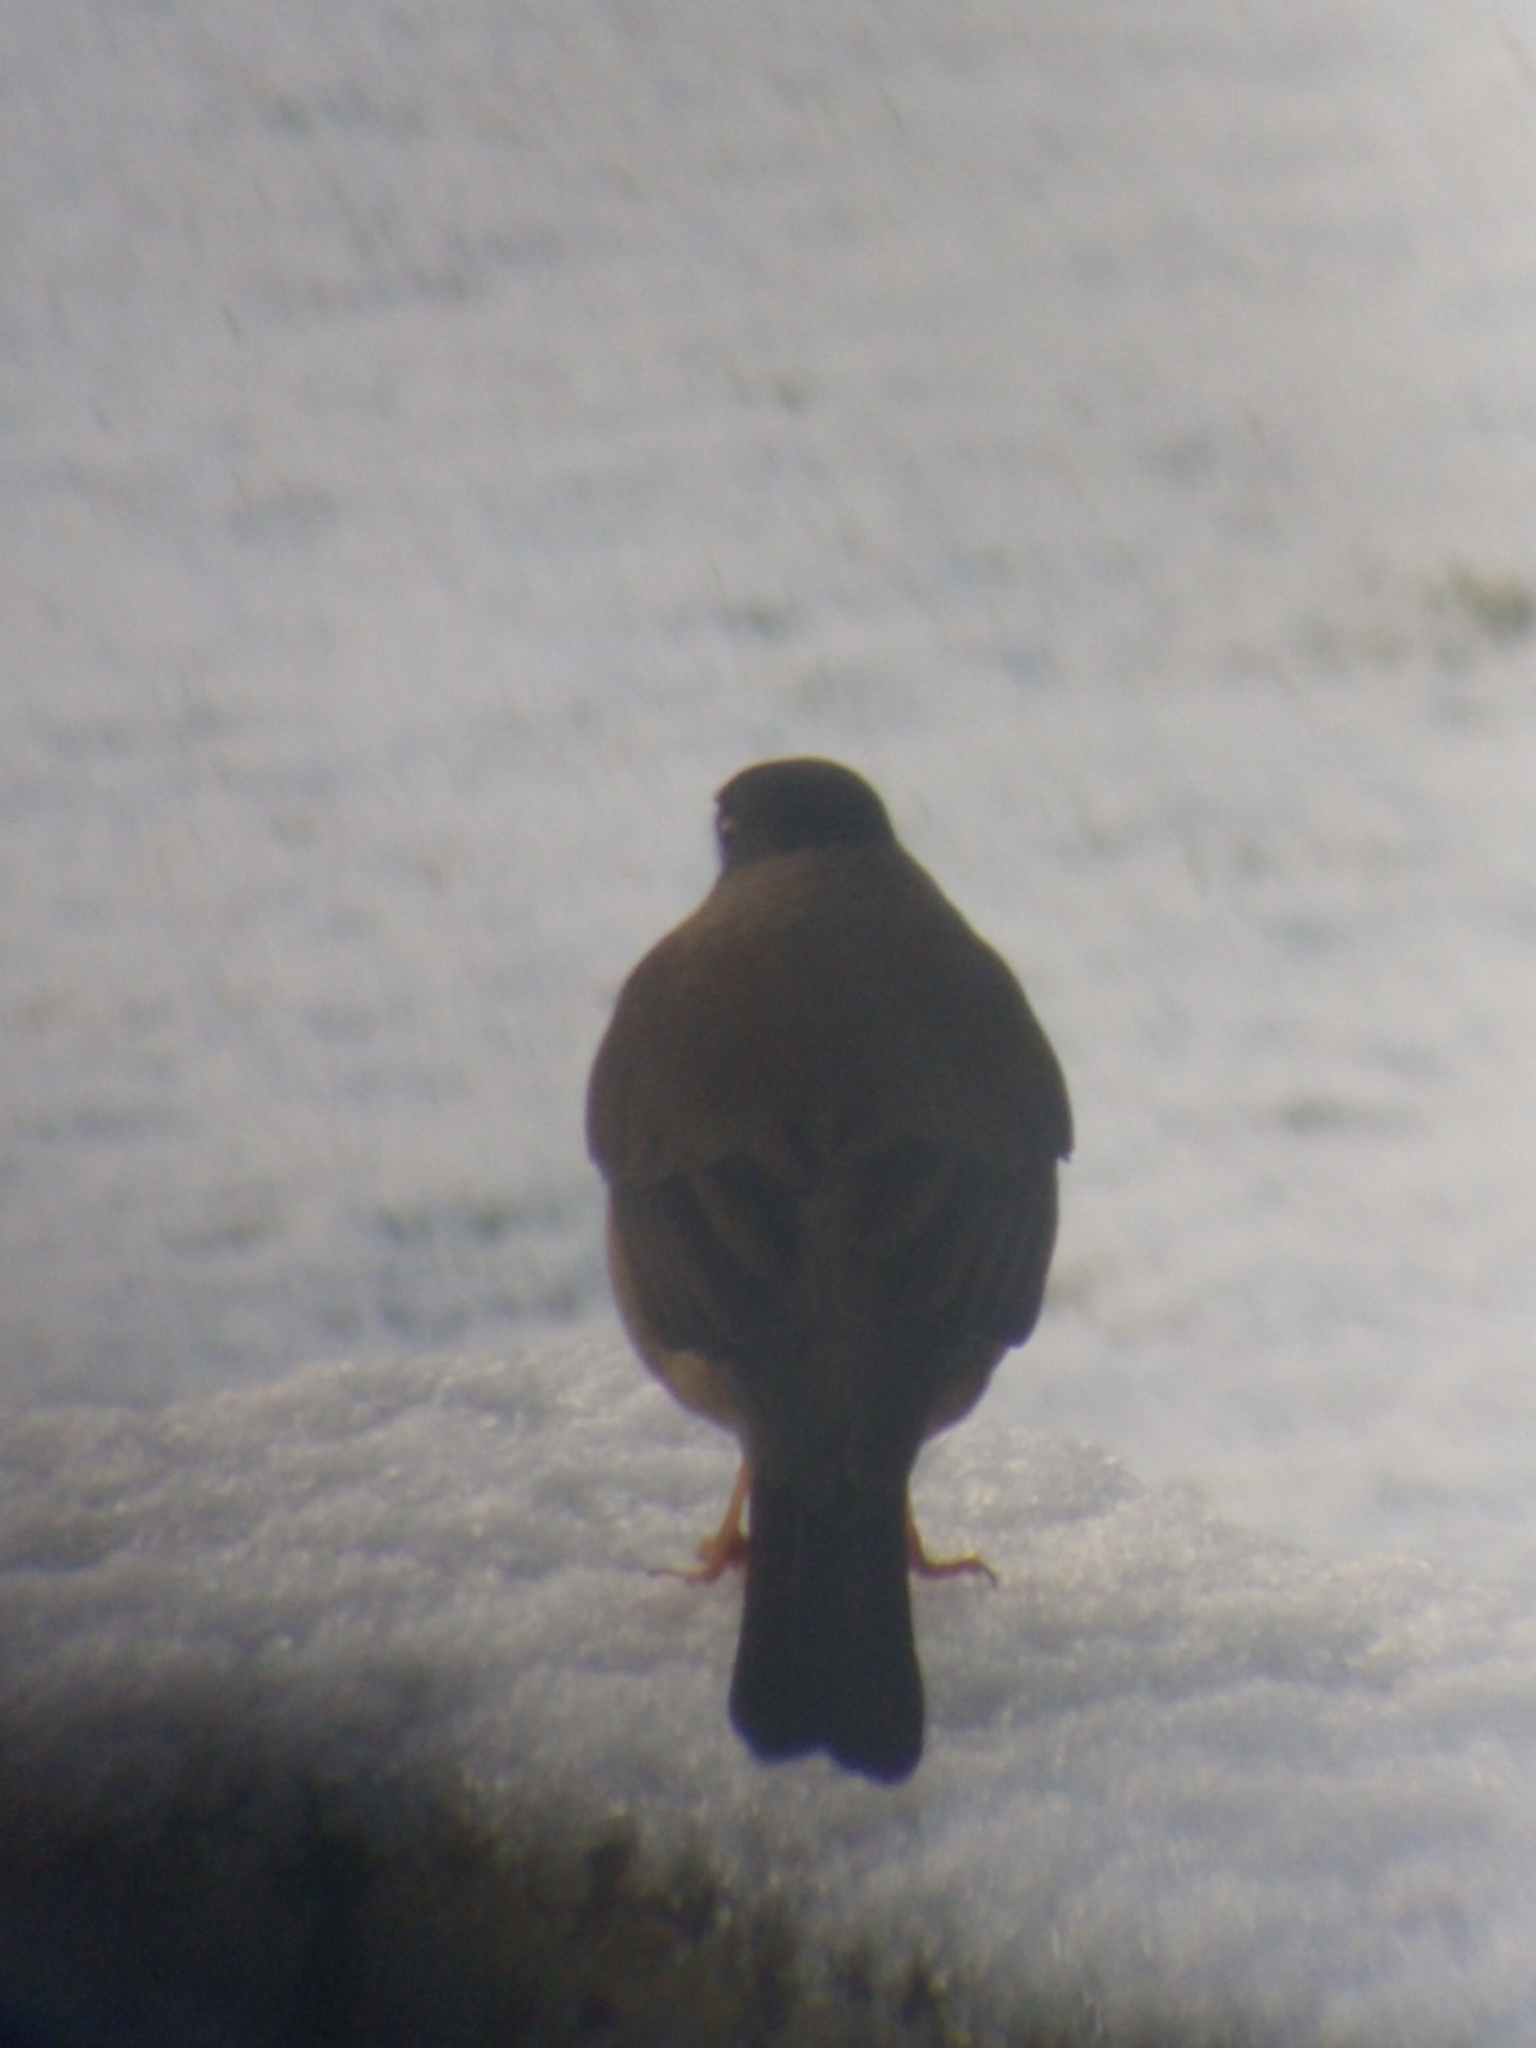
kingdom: Animalia
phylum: Chordata
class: Aves
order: Passeriformes
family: Turdidae
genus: Turdus
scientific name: Turdus falcklandii
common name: Austral thrush
